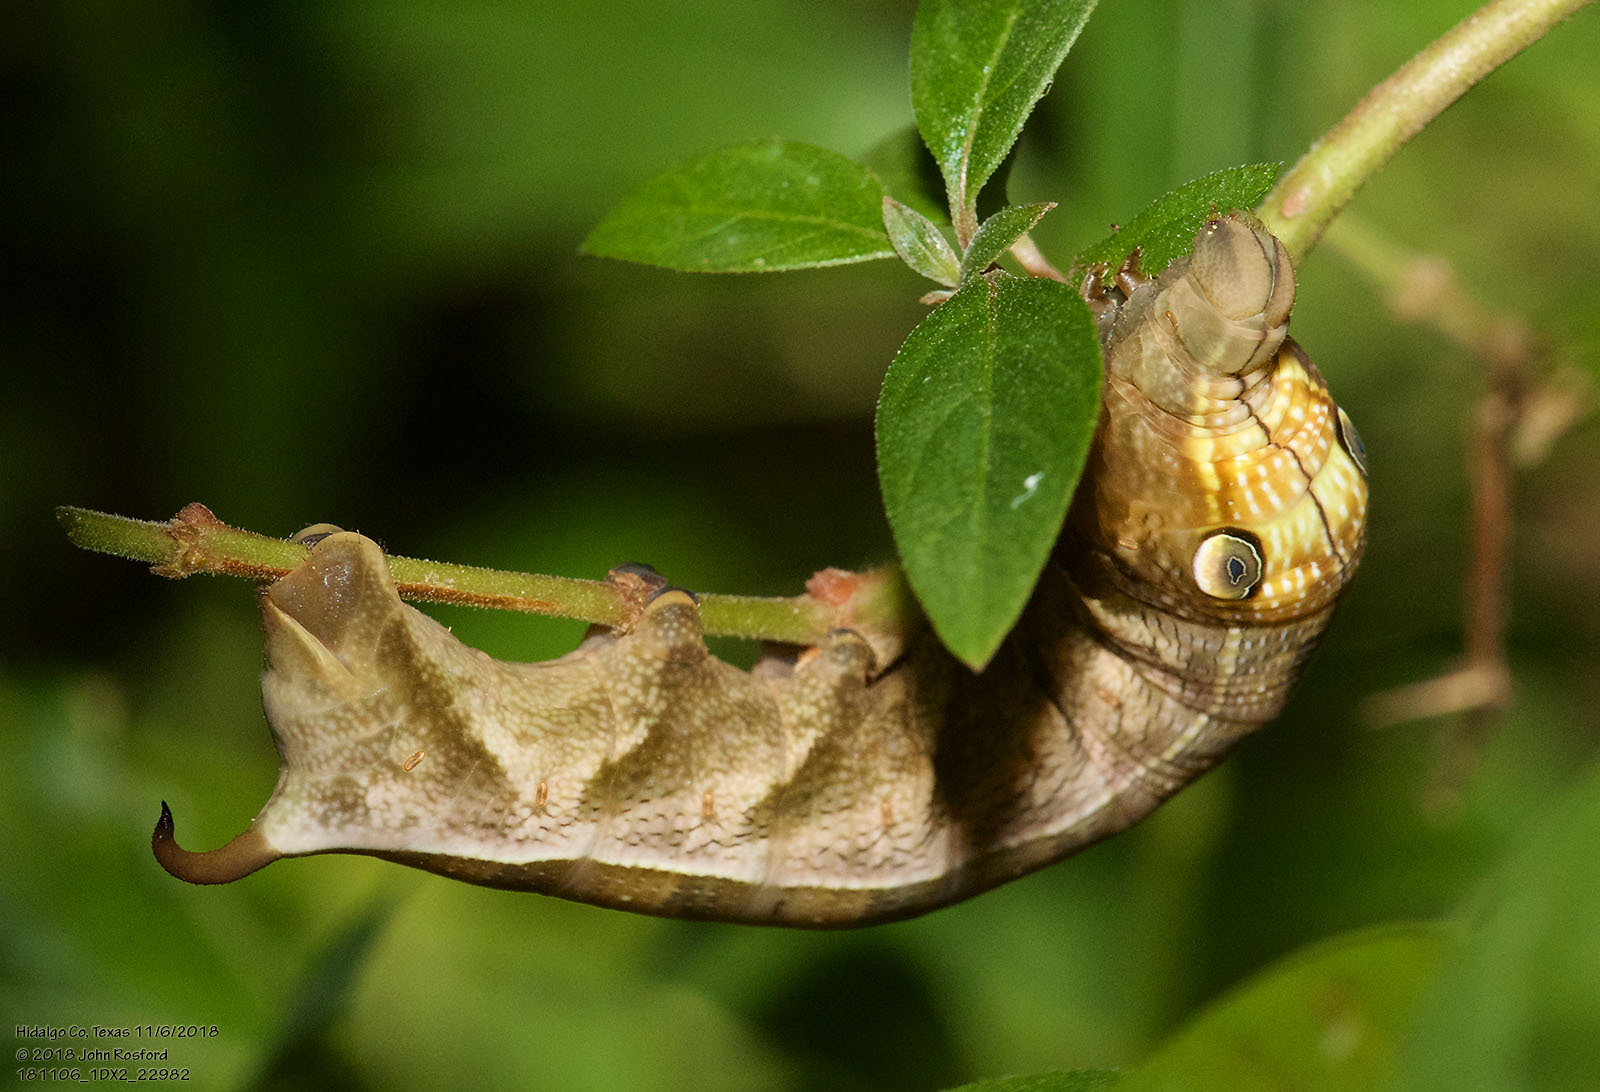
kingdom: Animalia
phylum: Arthropoda
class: Insecta
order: Lepidoptera
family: Sphingidae
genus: Xylophanes
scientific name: Xylophanes pluto
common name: Pluto sphinx
